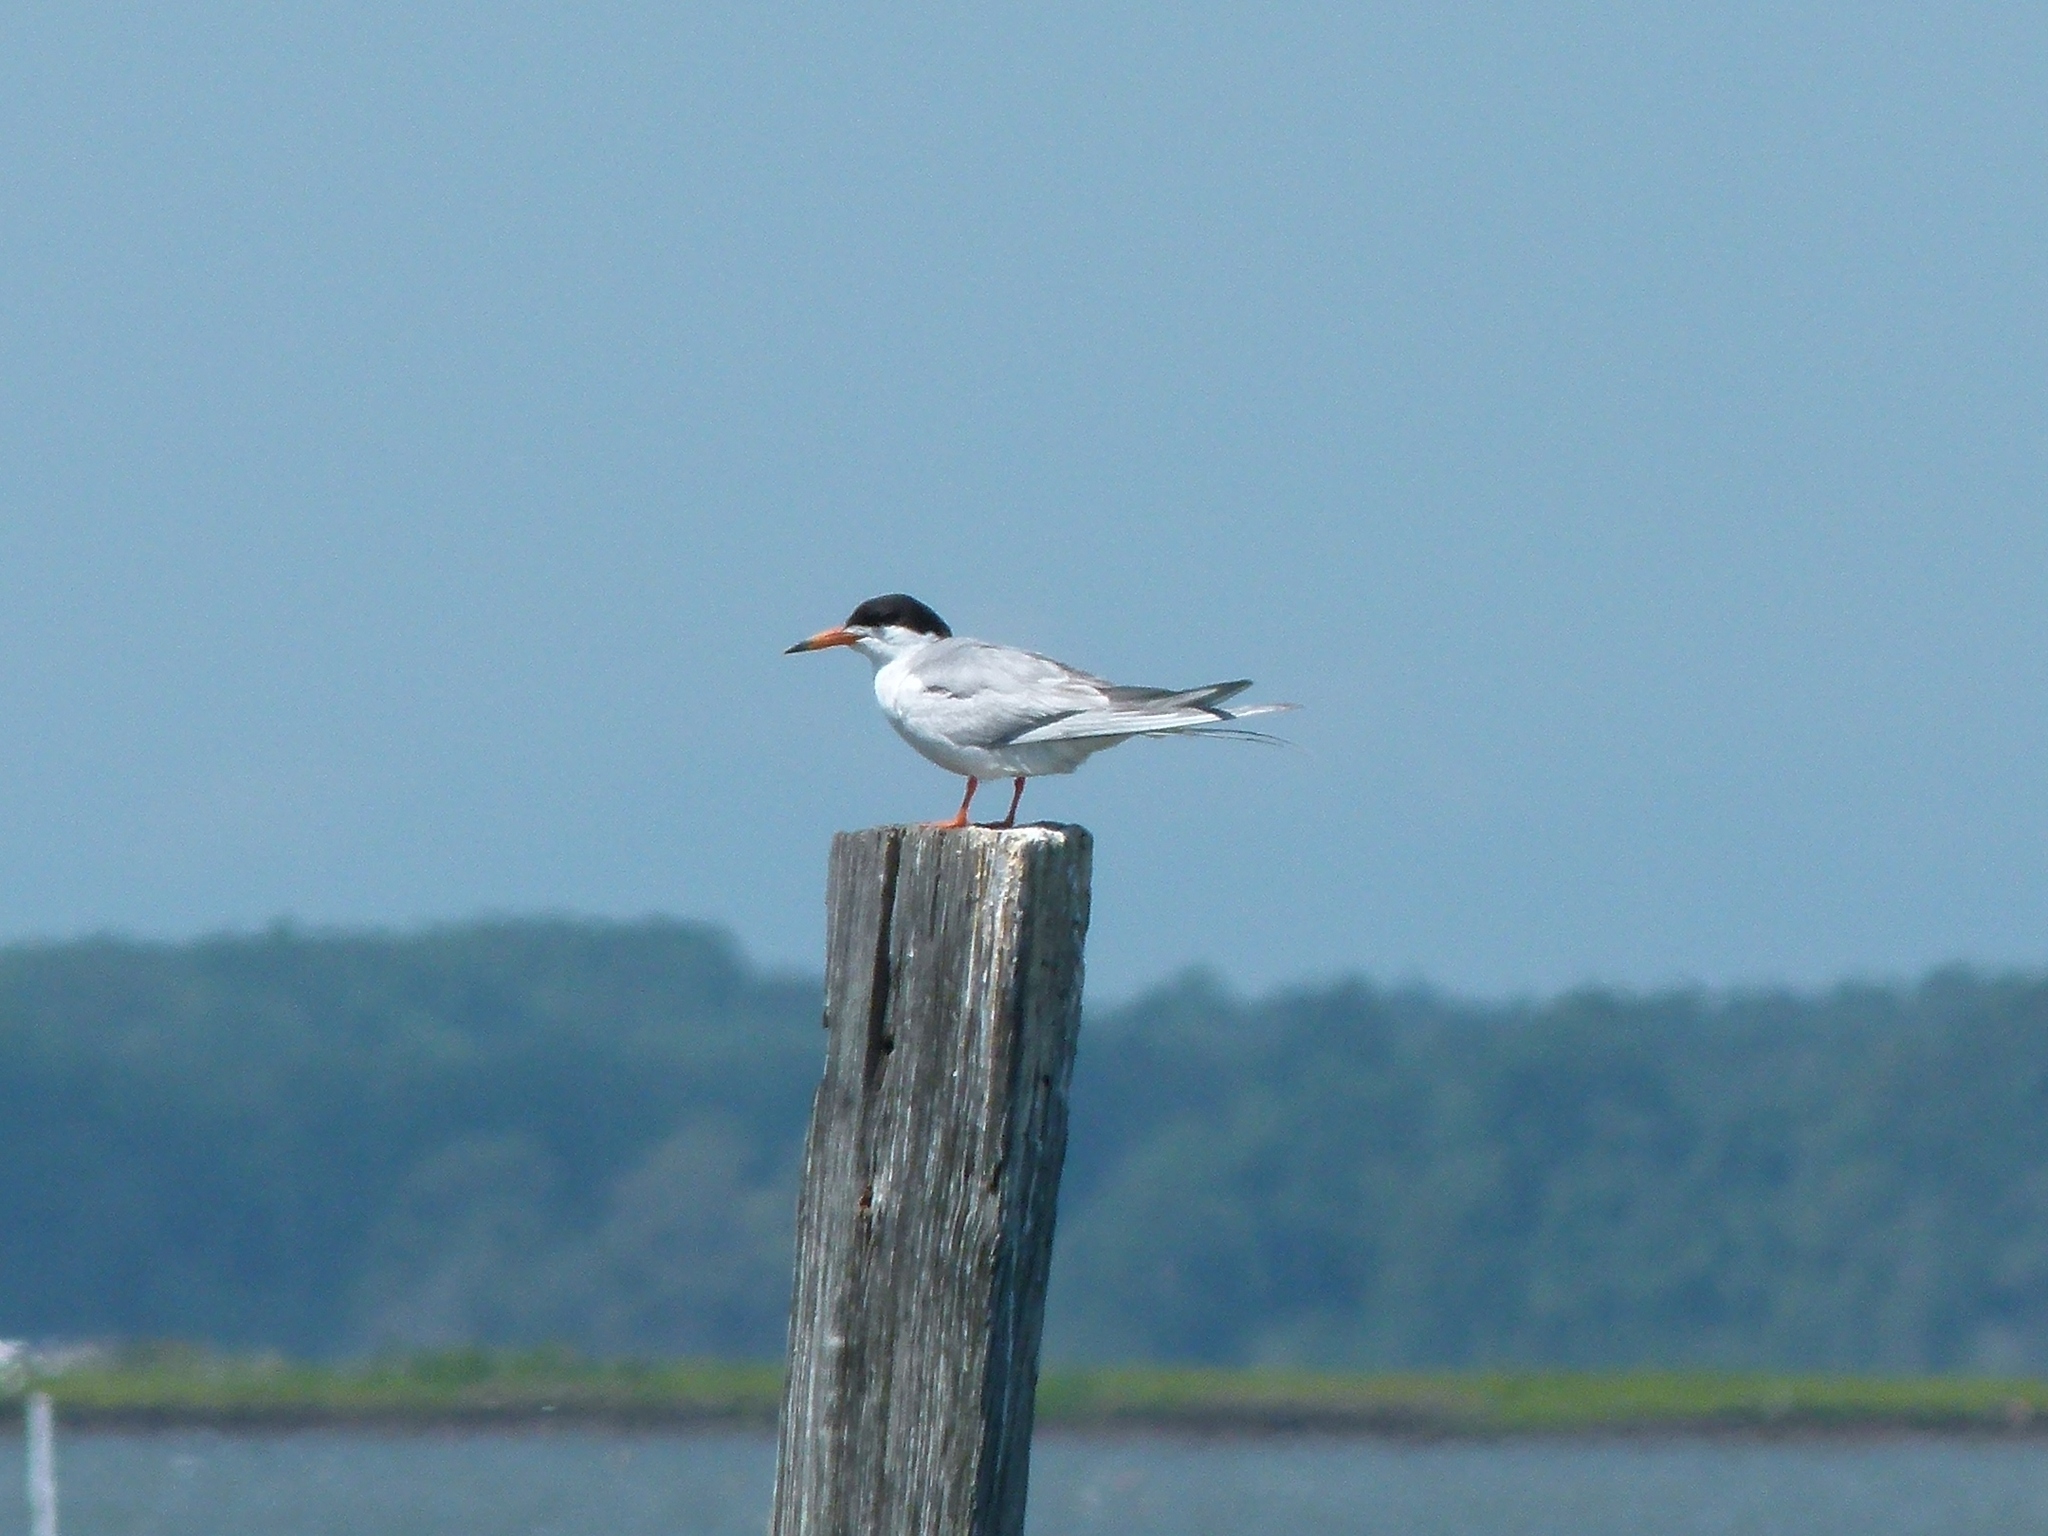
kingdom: Animalia
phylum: Chordata
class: Aves
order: Charadriiformes
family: Laridae
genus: Sterna
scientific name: Sterna forsteri
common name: Forster's tern
